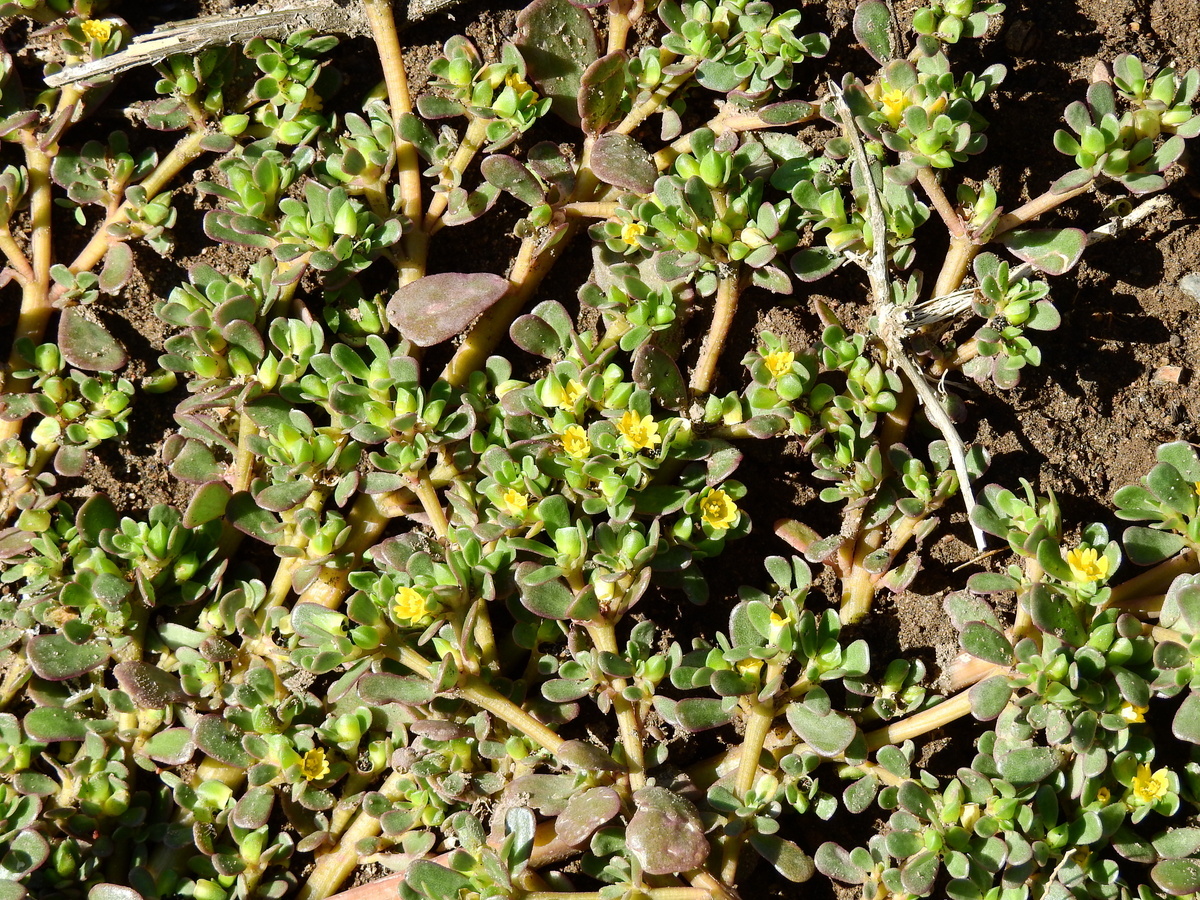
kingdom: Plantae
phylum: Tracheophyta
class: Magnoliopsida
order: Caryophyllales
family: Portulacaceae
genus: Portulaca
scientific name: Portulaca oleracea
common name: Common purslane
